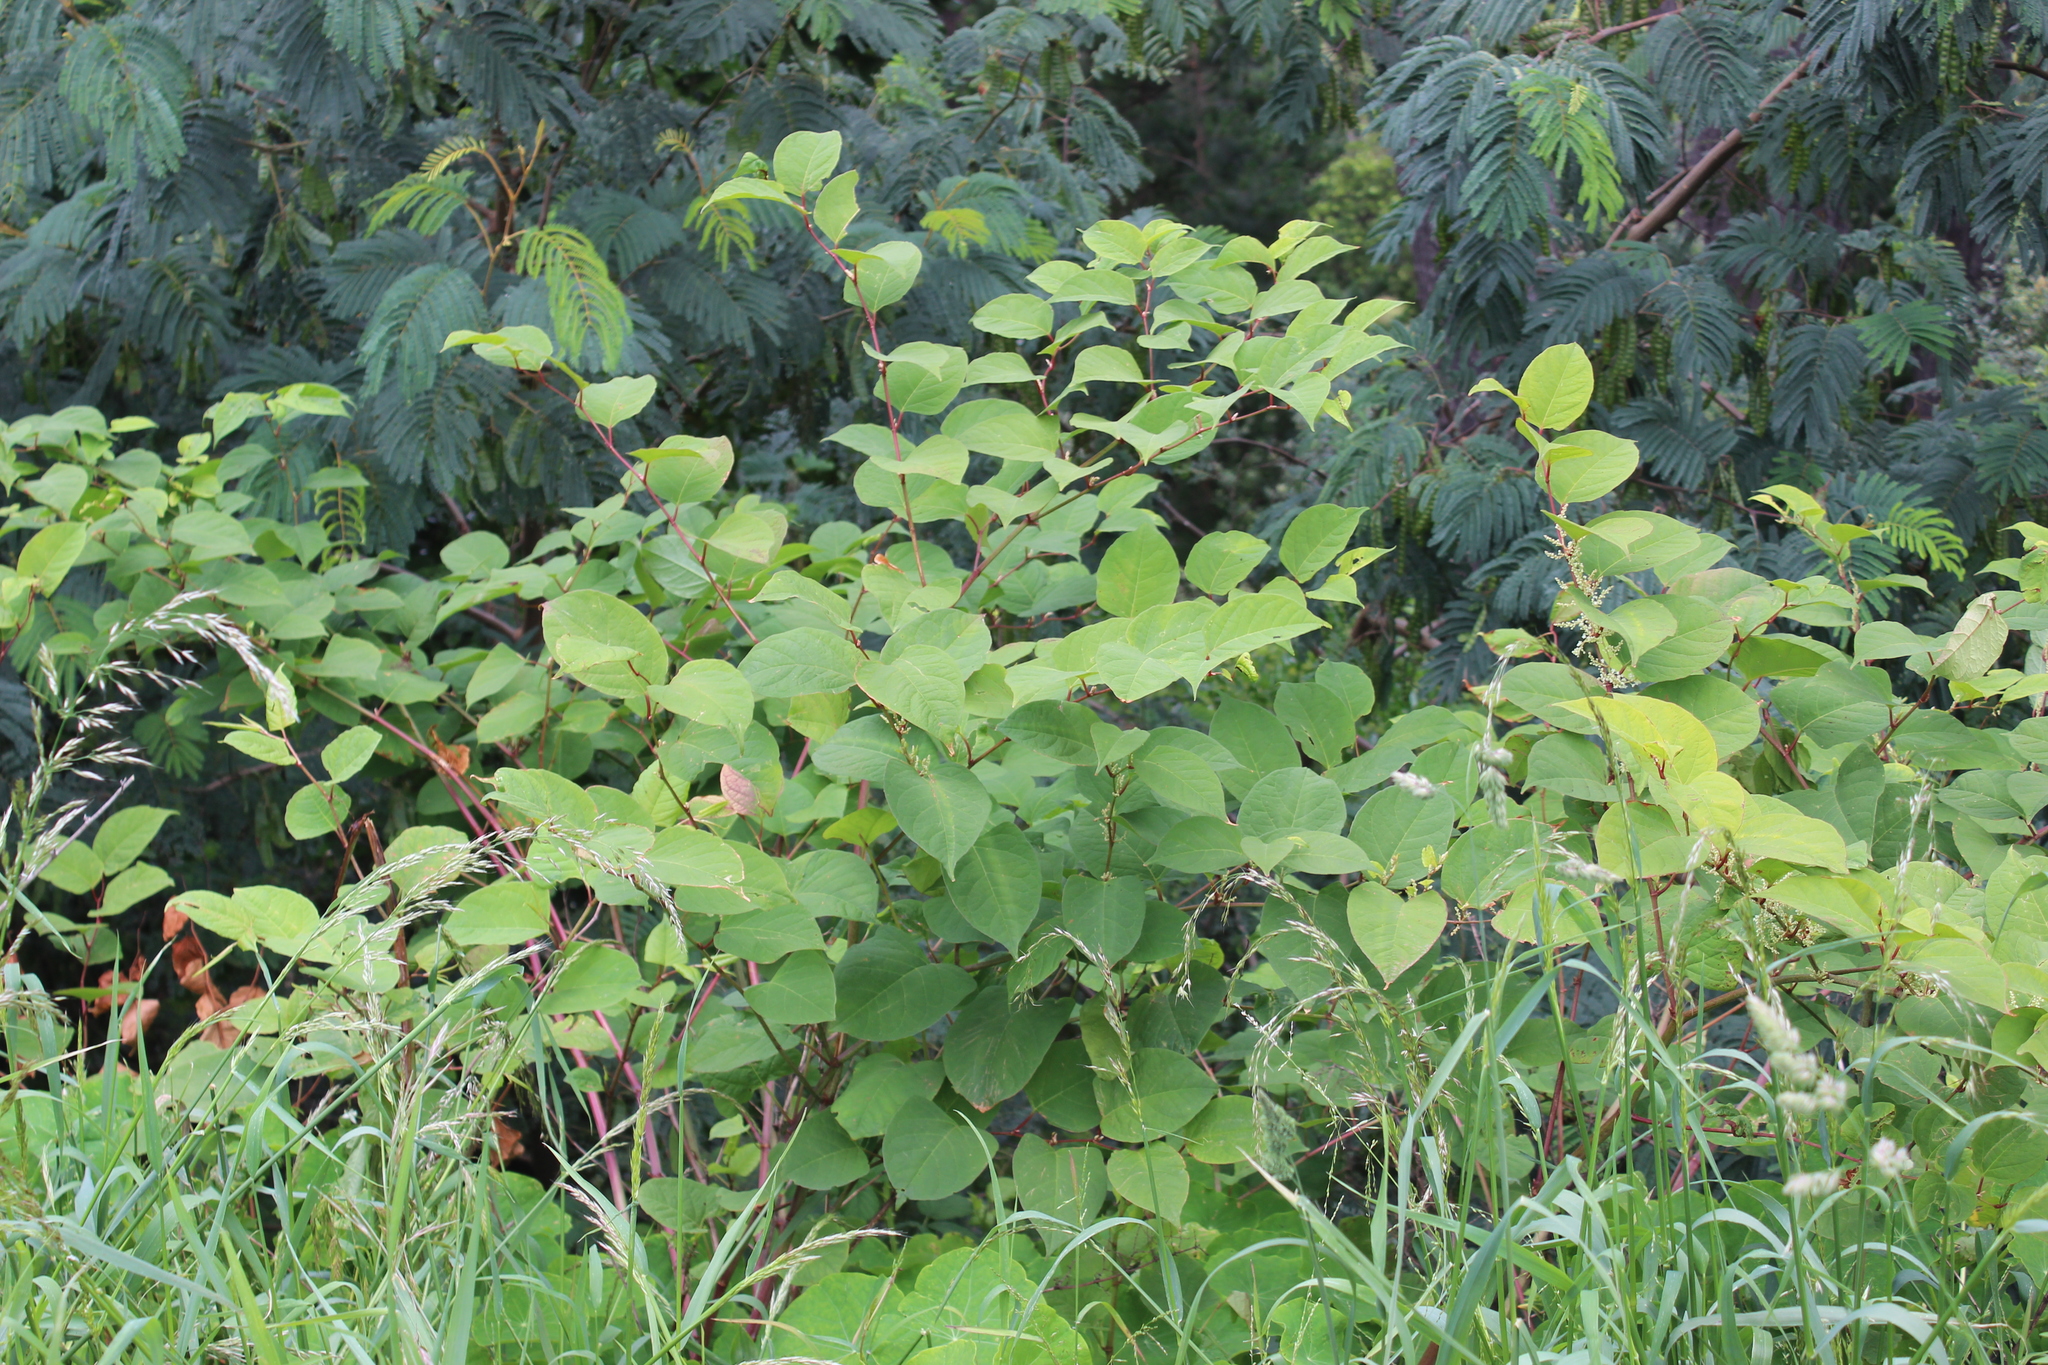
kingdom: Plantae
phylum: Tracheophyta
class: Magnoliopsida
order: Caryophyllales
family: Polygonaceae
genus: Reynoutria
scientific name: Reynoutria japonica
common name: Japanese knotweed
